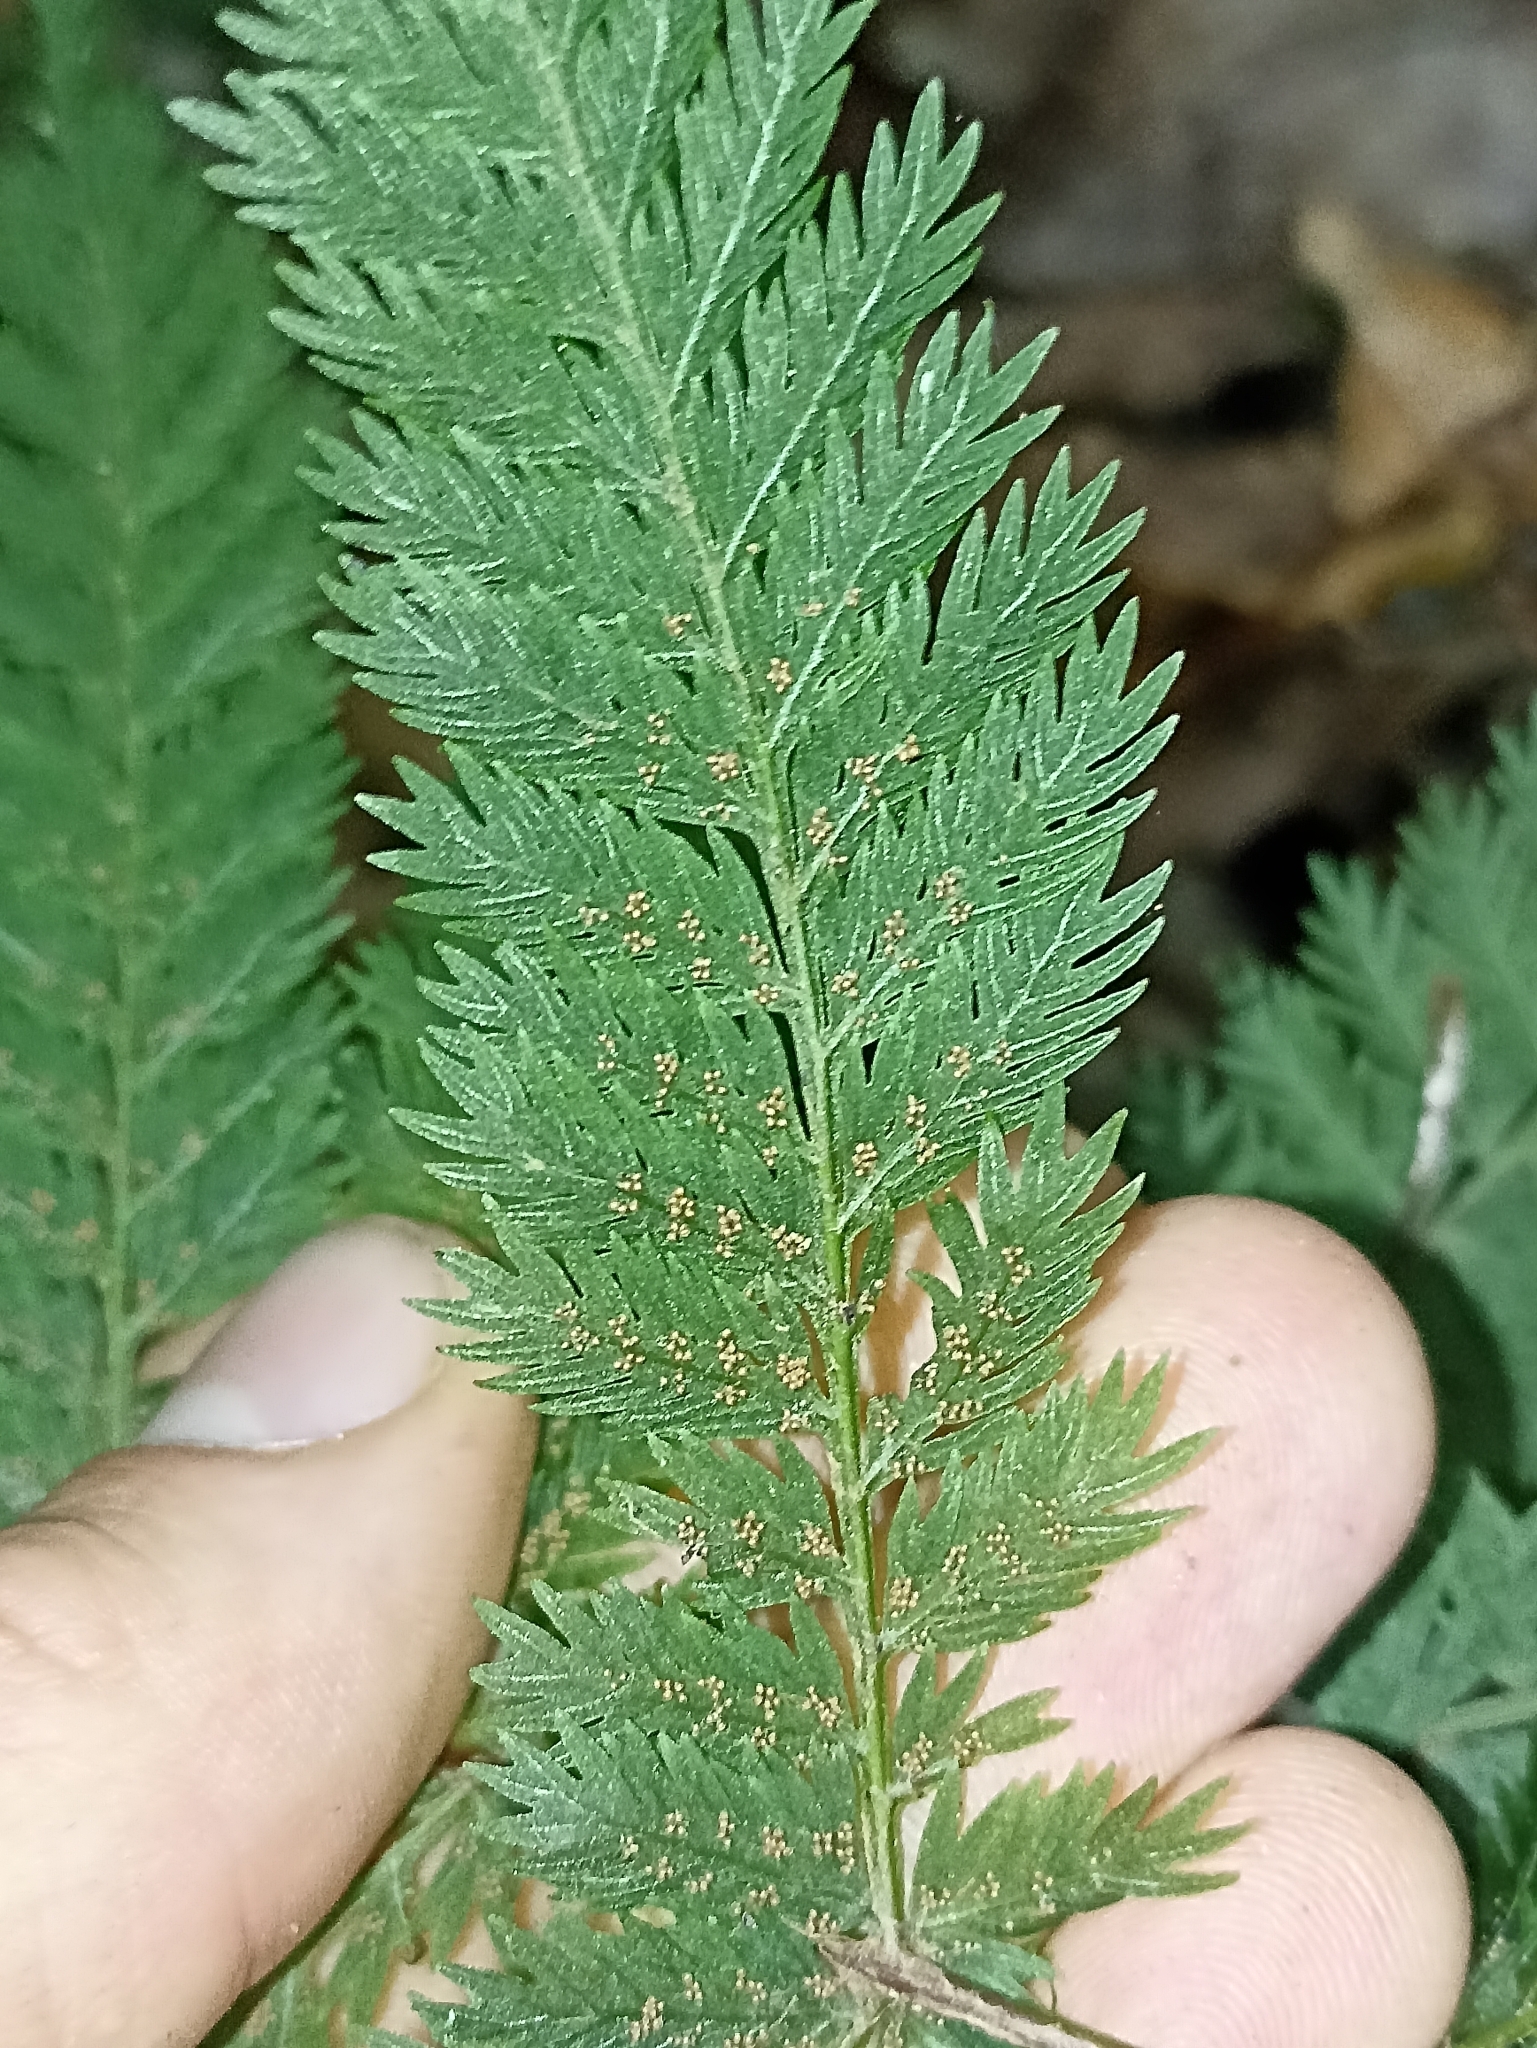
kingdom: Plantae
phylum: Tracheophyta
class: Polypodiopsida
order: Osmundales
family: Osmundaceae
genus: Leptopteris
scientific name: Leptopteris hymenophylloides
